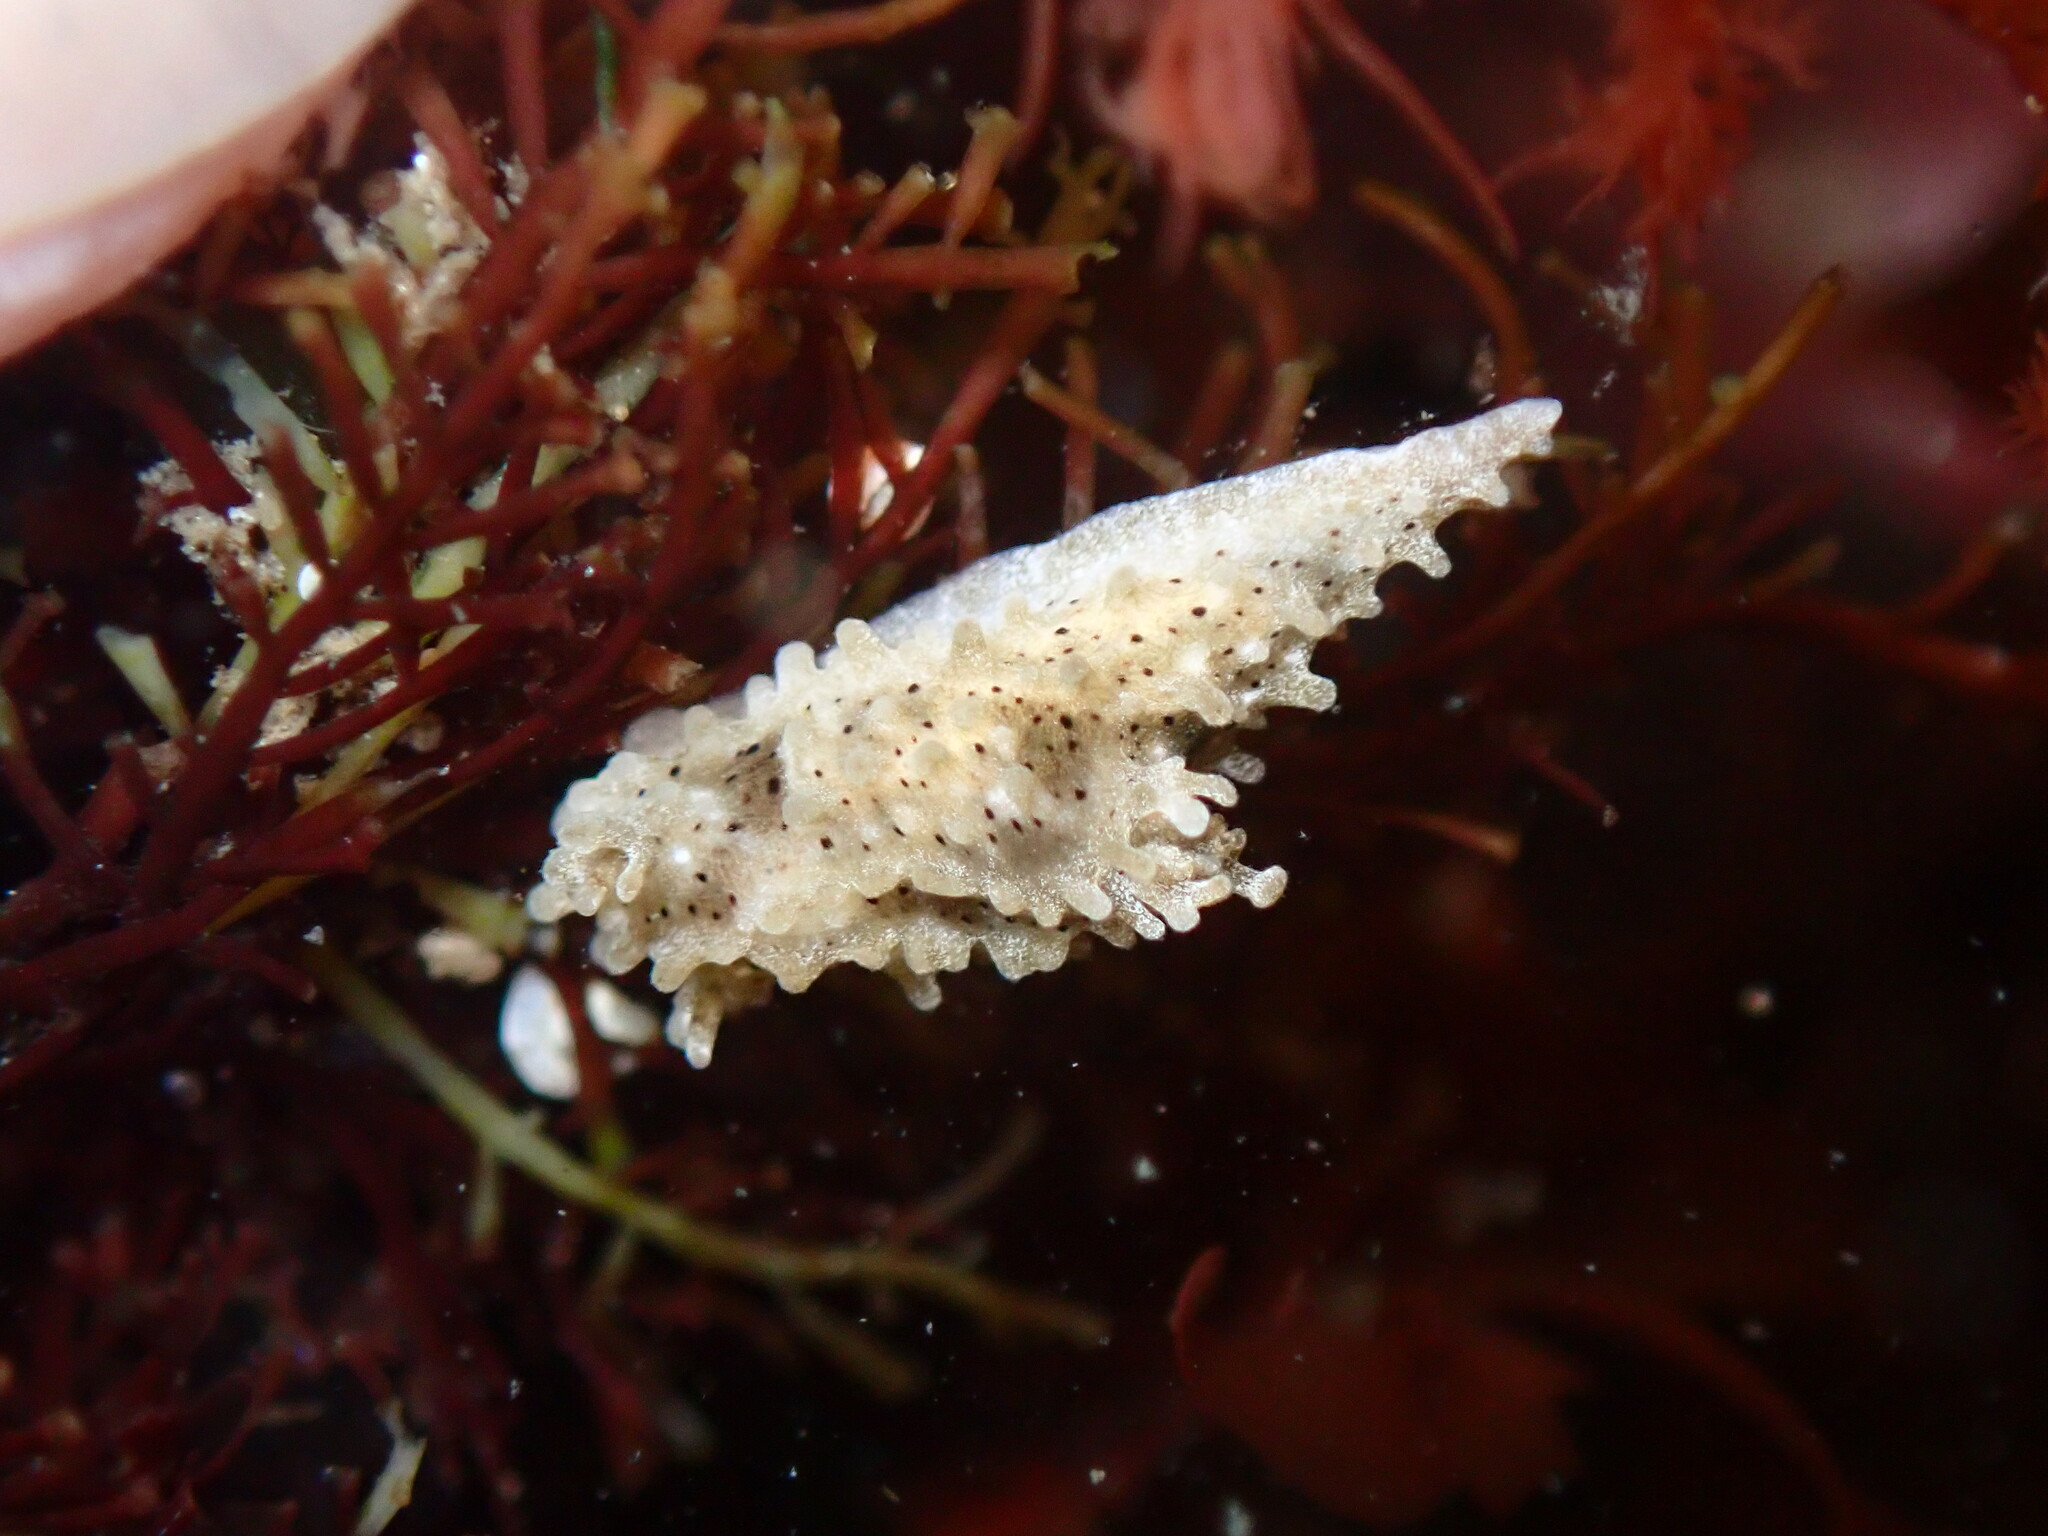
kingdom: Animalia
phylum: Mollusca
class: Gastropoda
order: Nudibranchia
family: Aegiridae
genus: Aegires
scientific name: Aegires albopunctatus
